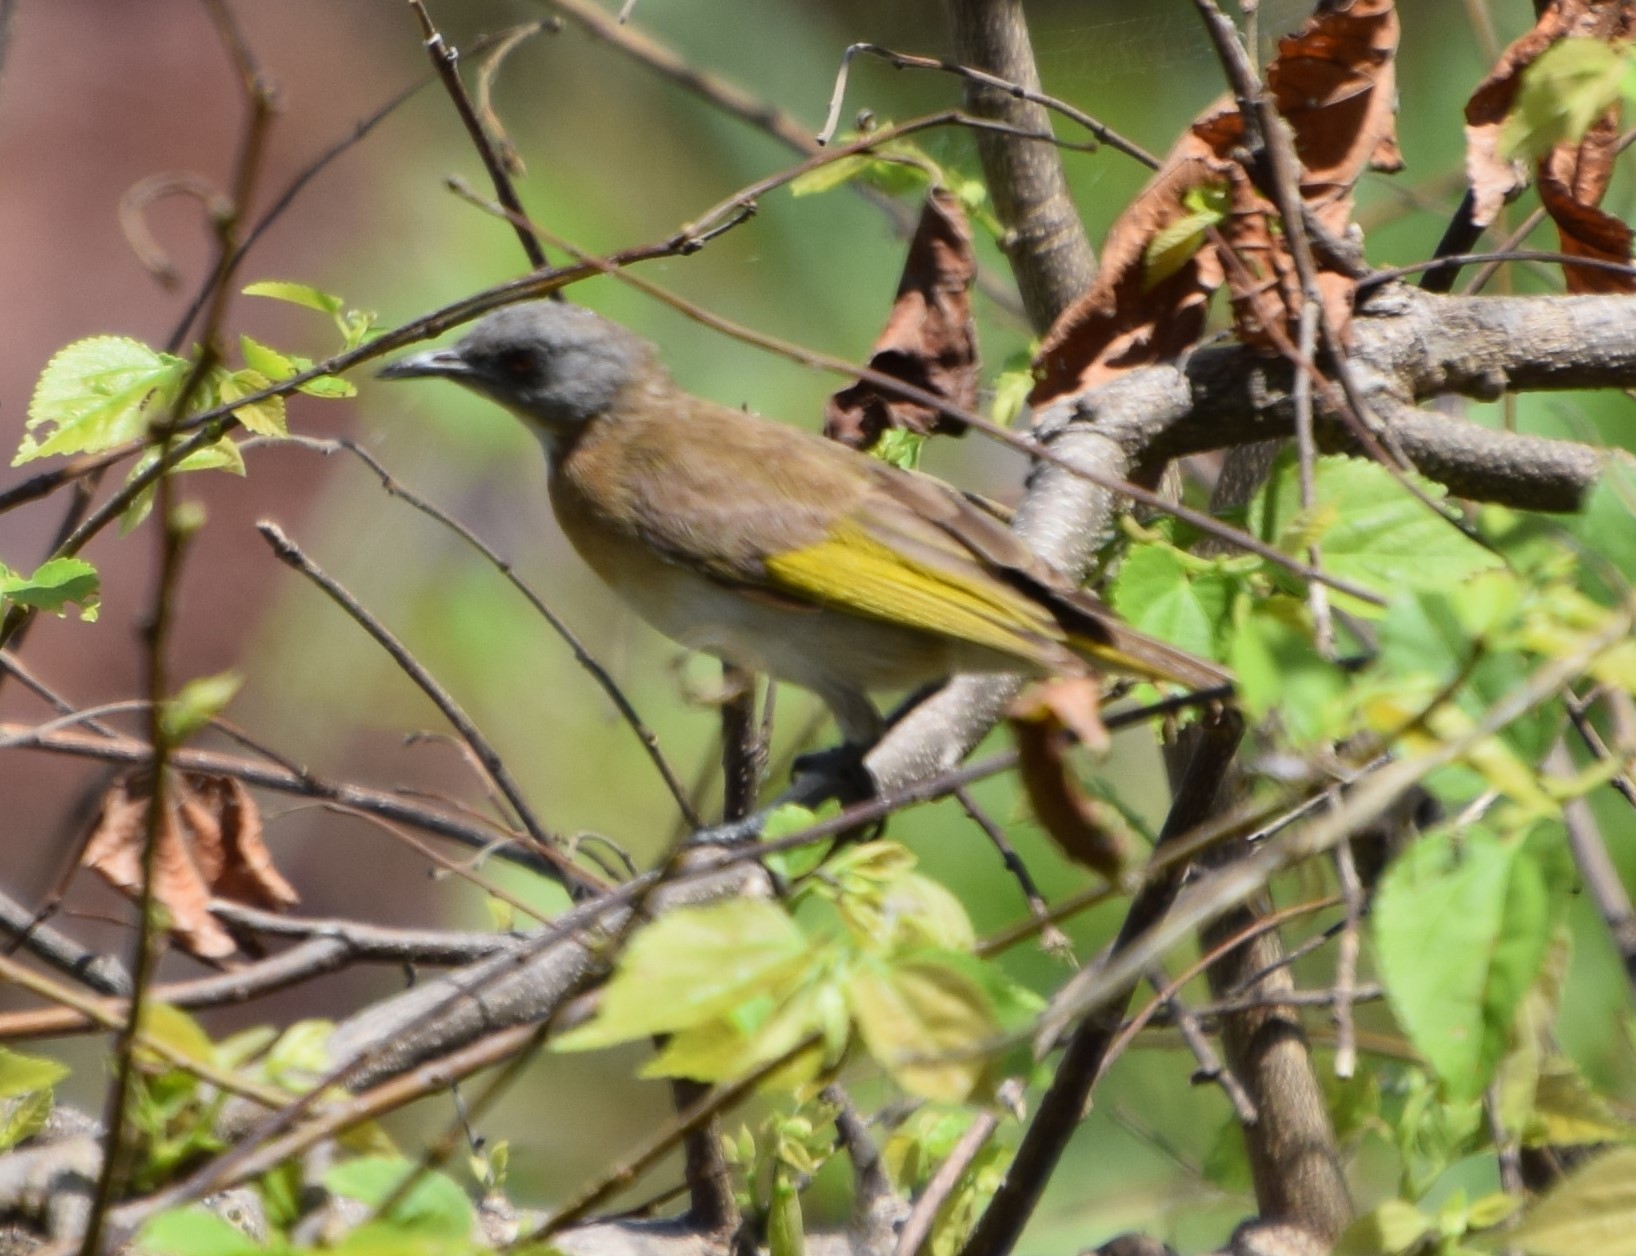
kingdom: Animalia
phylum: Chordata
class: Aves
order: Passeriformes
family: Meliphagidae
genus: Conopophila
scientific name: Conopophila albogularis
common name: Rufous-banded honeyeater
